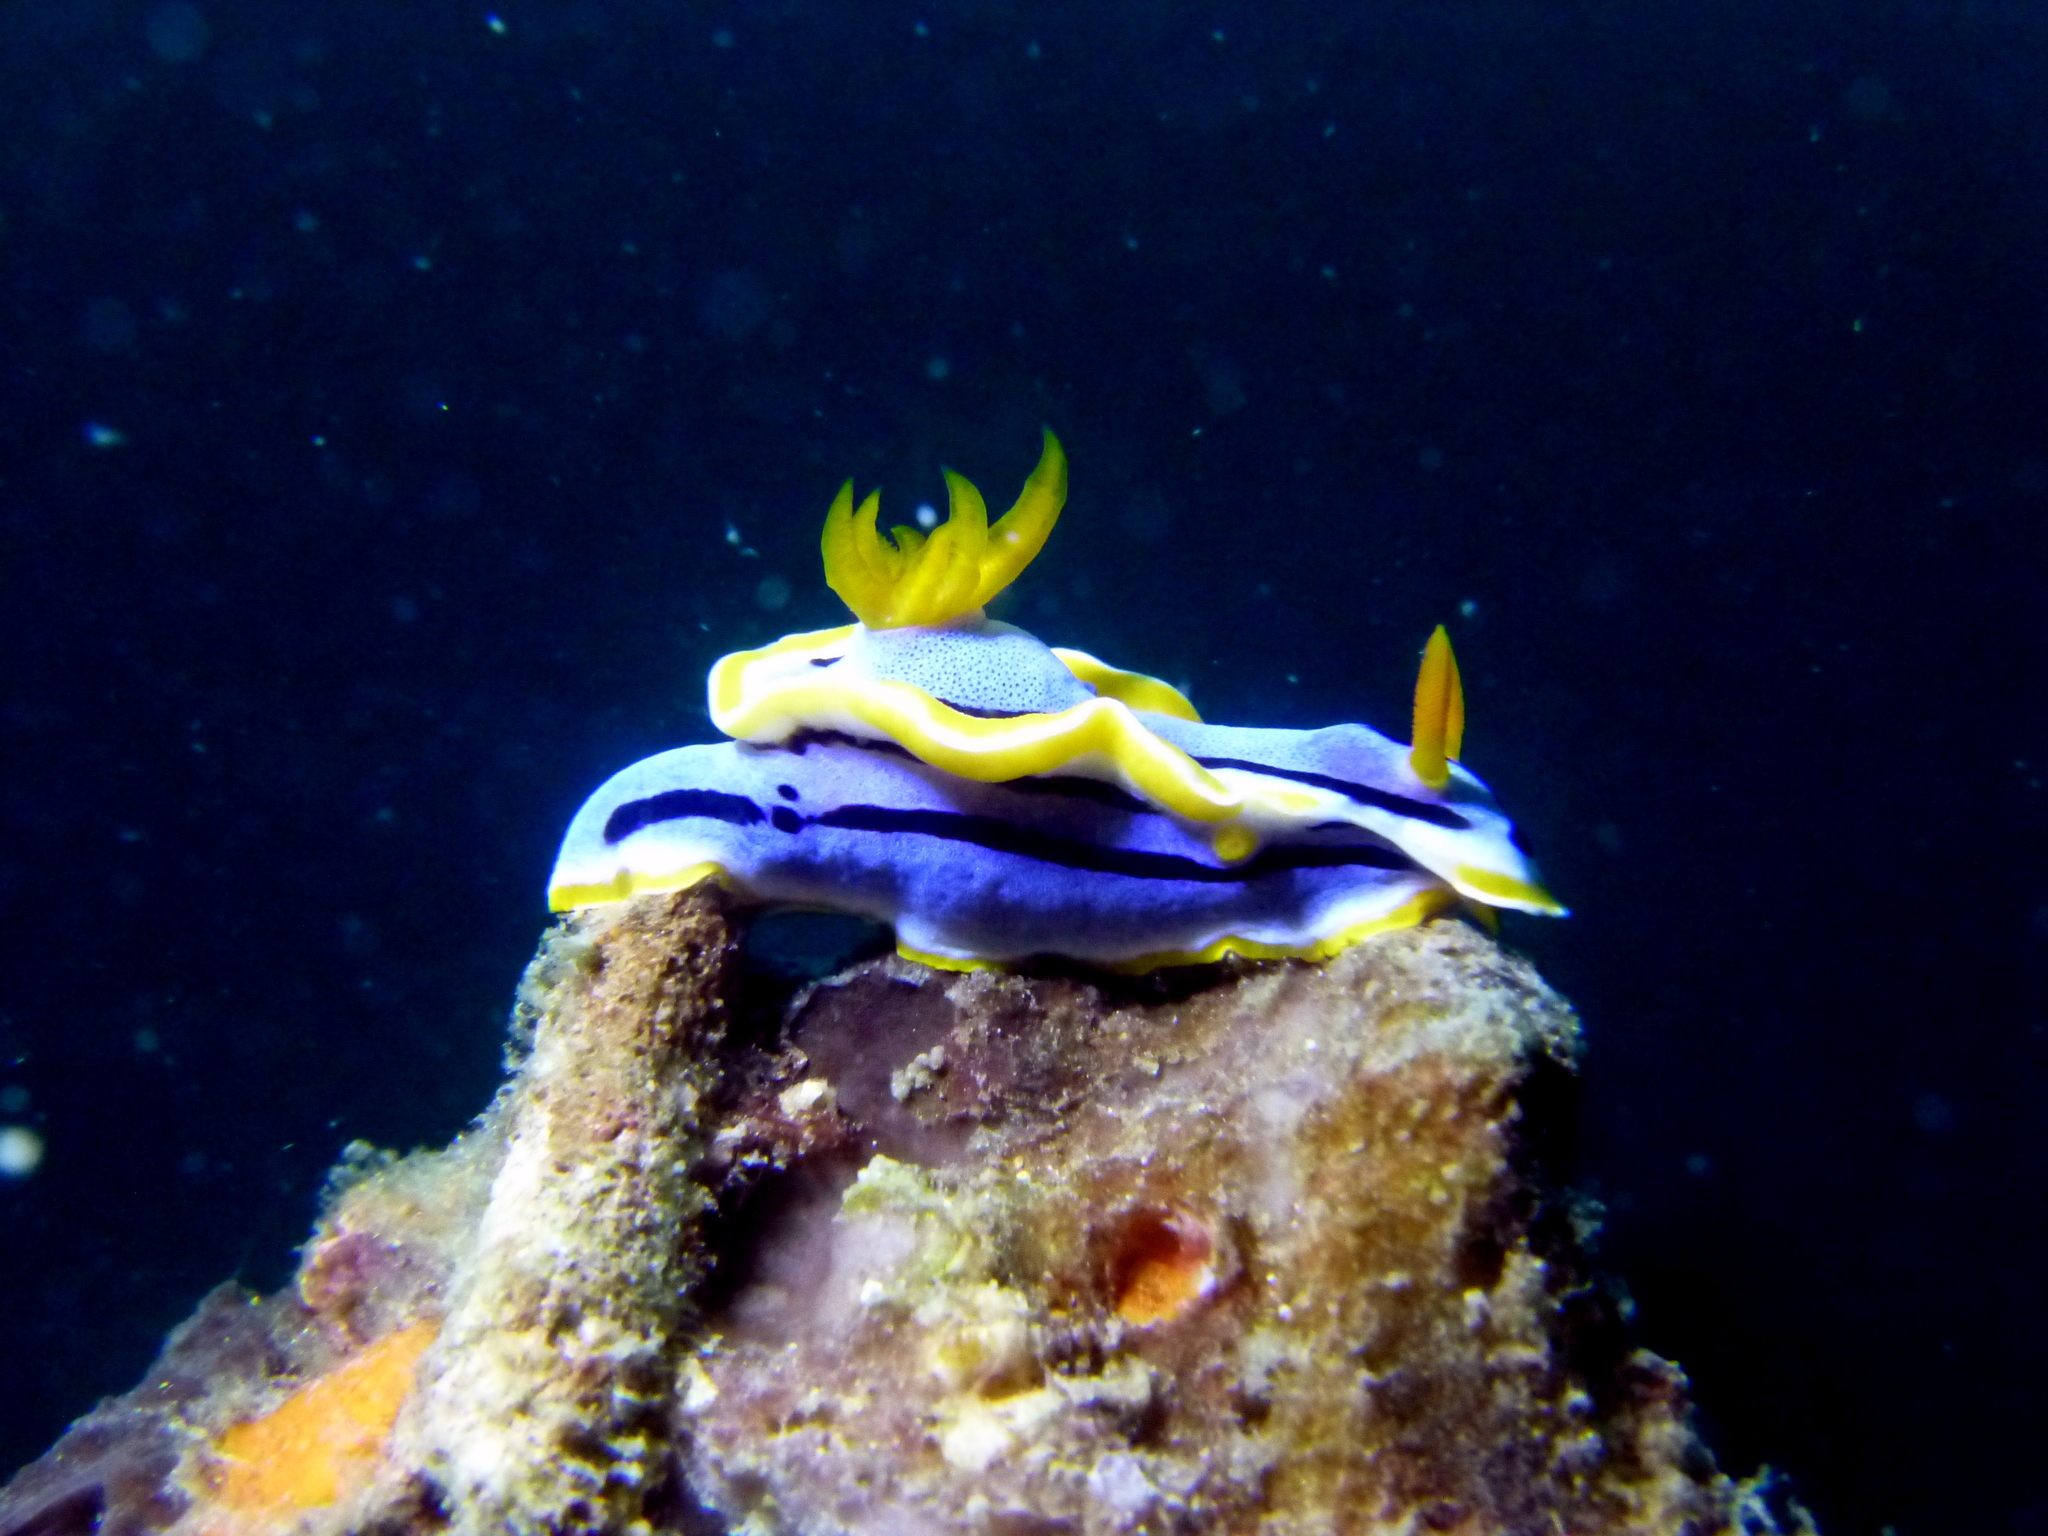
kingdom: Animalia
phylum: Mollusca
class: Gastropoda
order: Nudibranchia
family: Chromodorididae
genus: Chromodoris
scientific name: Chromodoris annae
